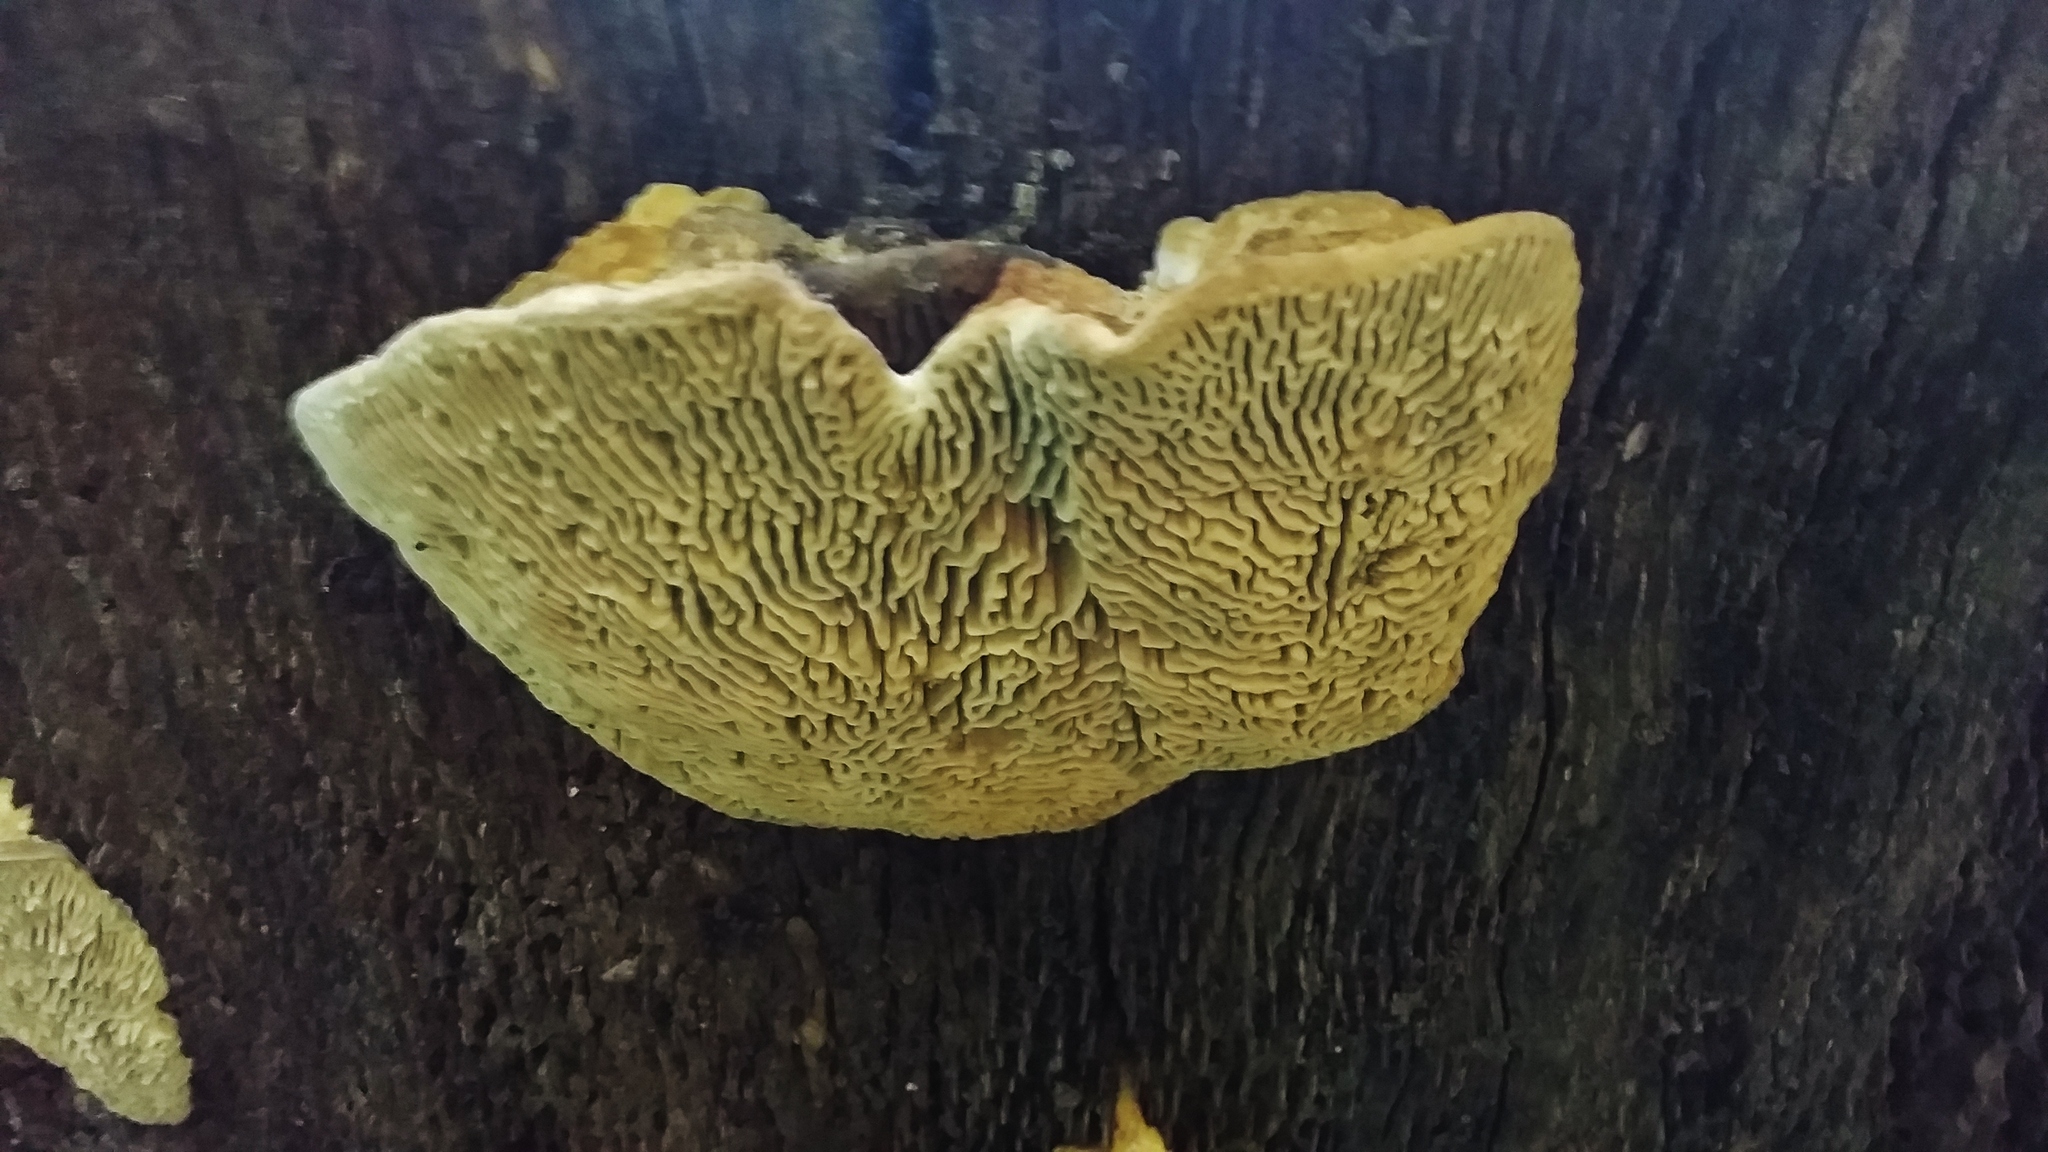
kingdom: Fungi
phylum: Basidiomycota
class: Agaricomycetes
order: Polyporales
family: Fomitopsidaceae
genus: Fomitopsis
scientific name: Fomitopsis
